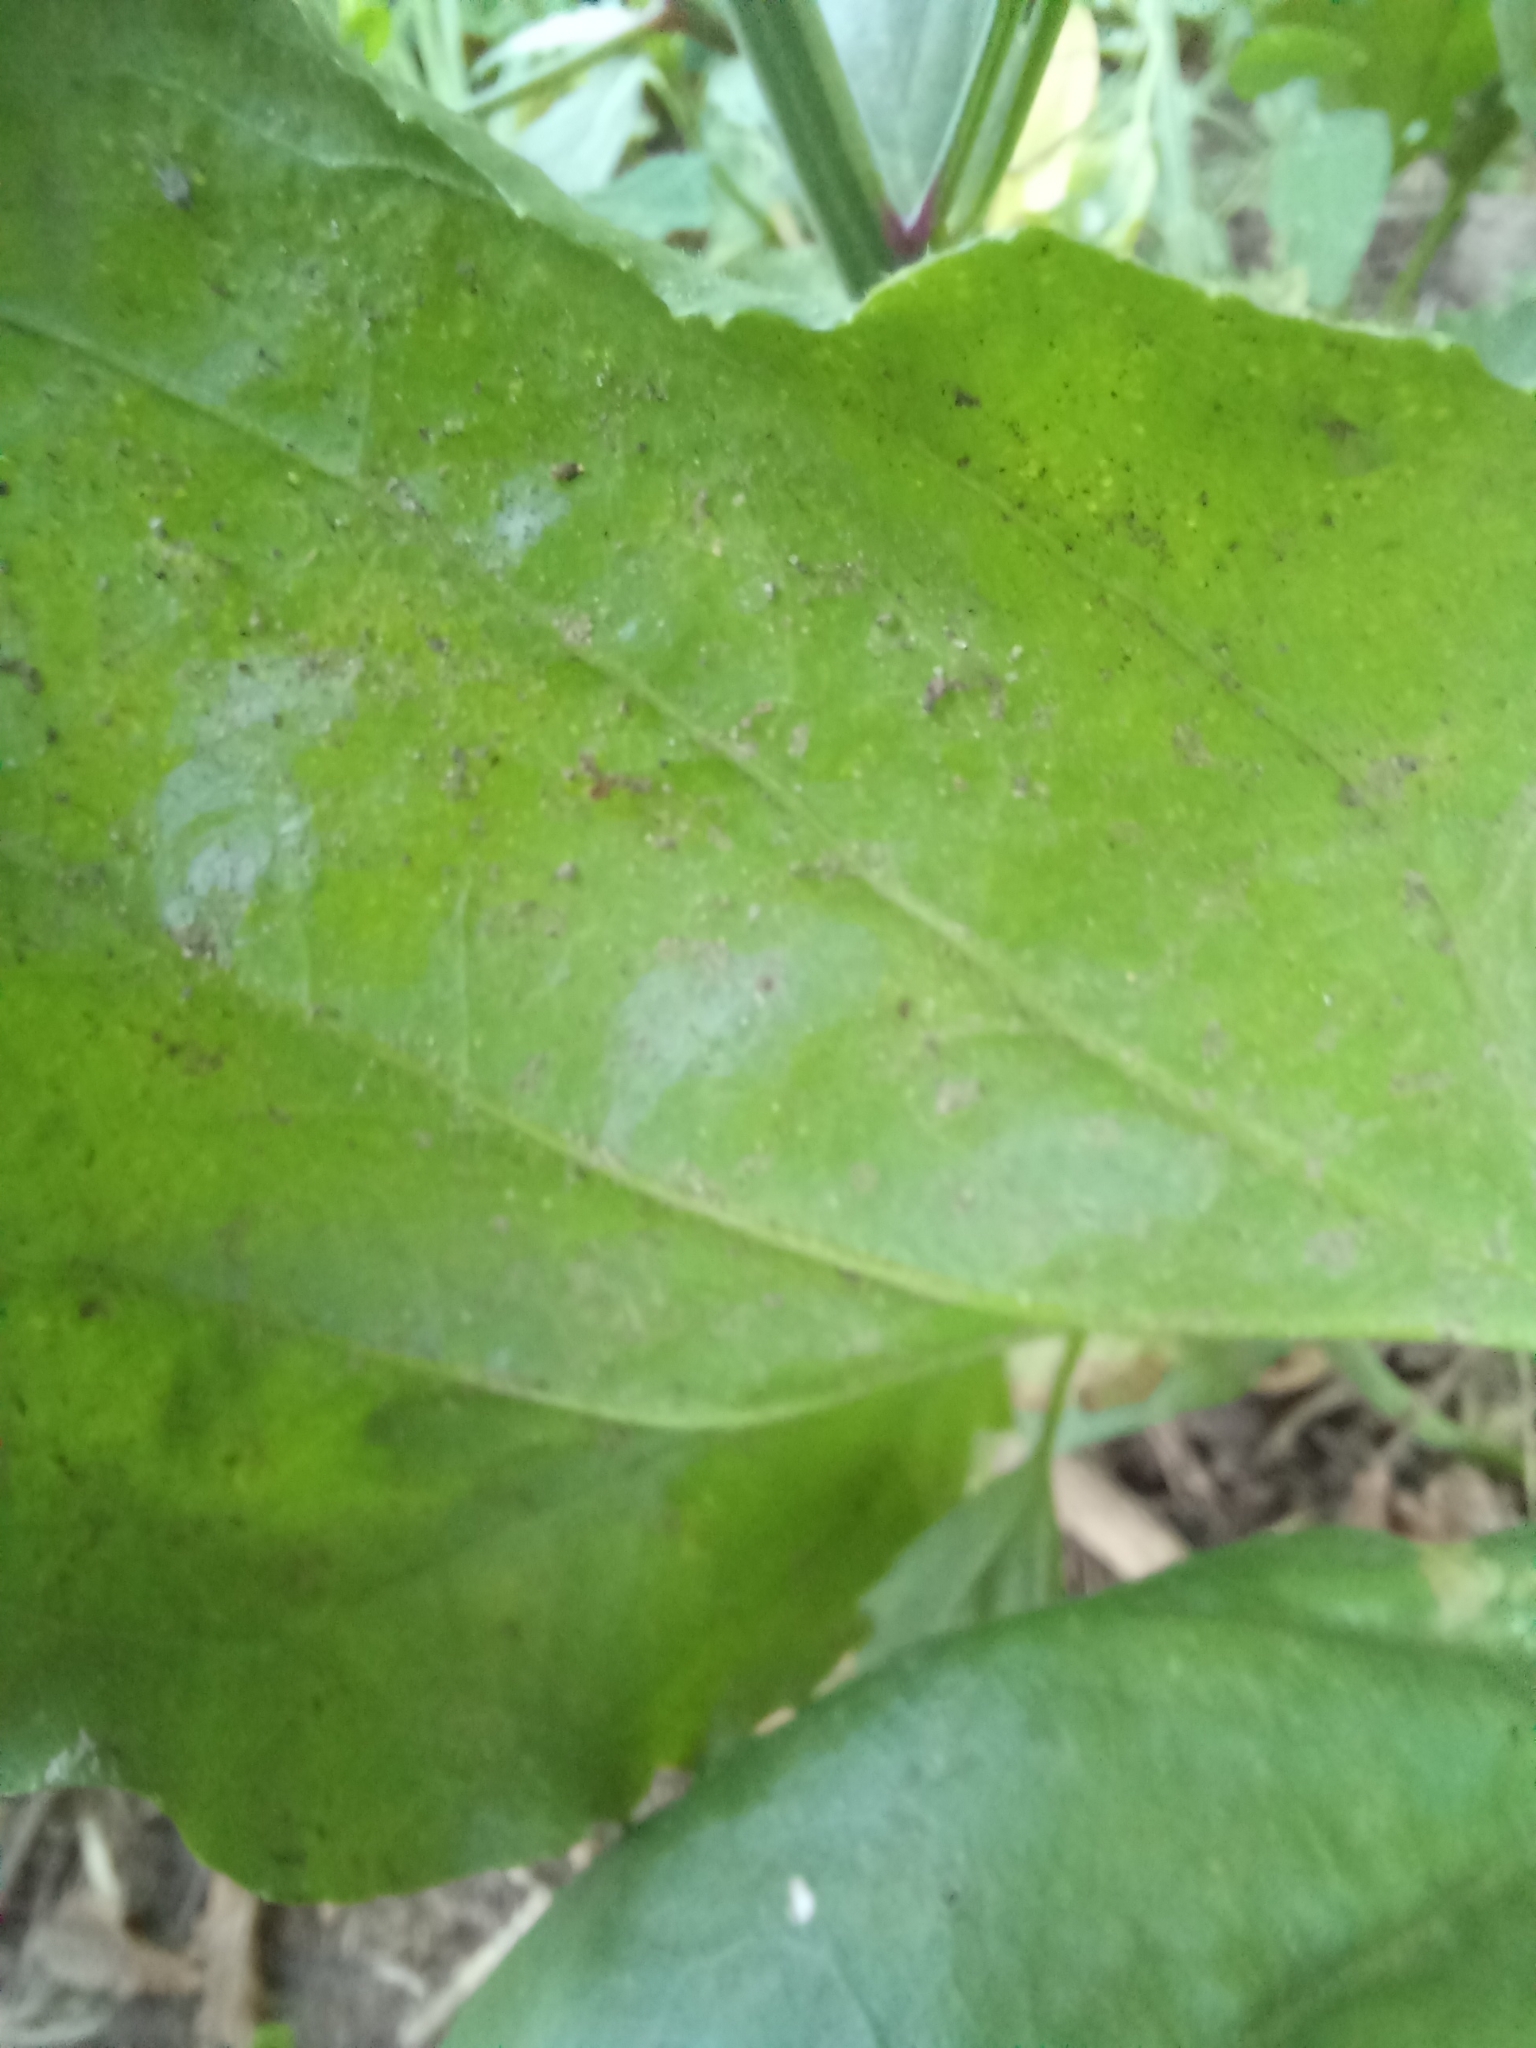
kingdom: Plantae
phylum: Tracheophyta
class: Magnoliopsida
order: Lamiales
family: Plantaginaceae
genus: Plantago
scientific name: Plantago major
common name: Common plantain
